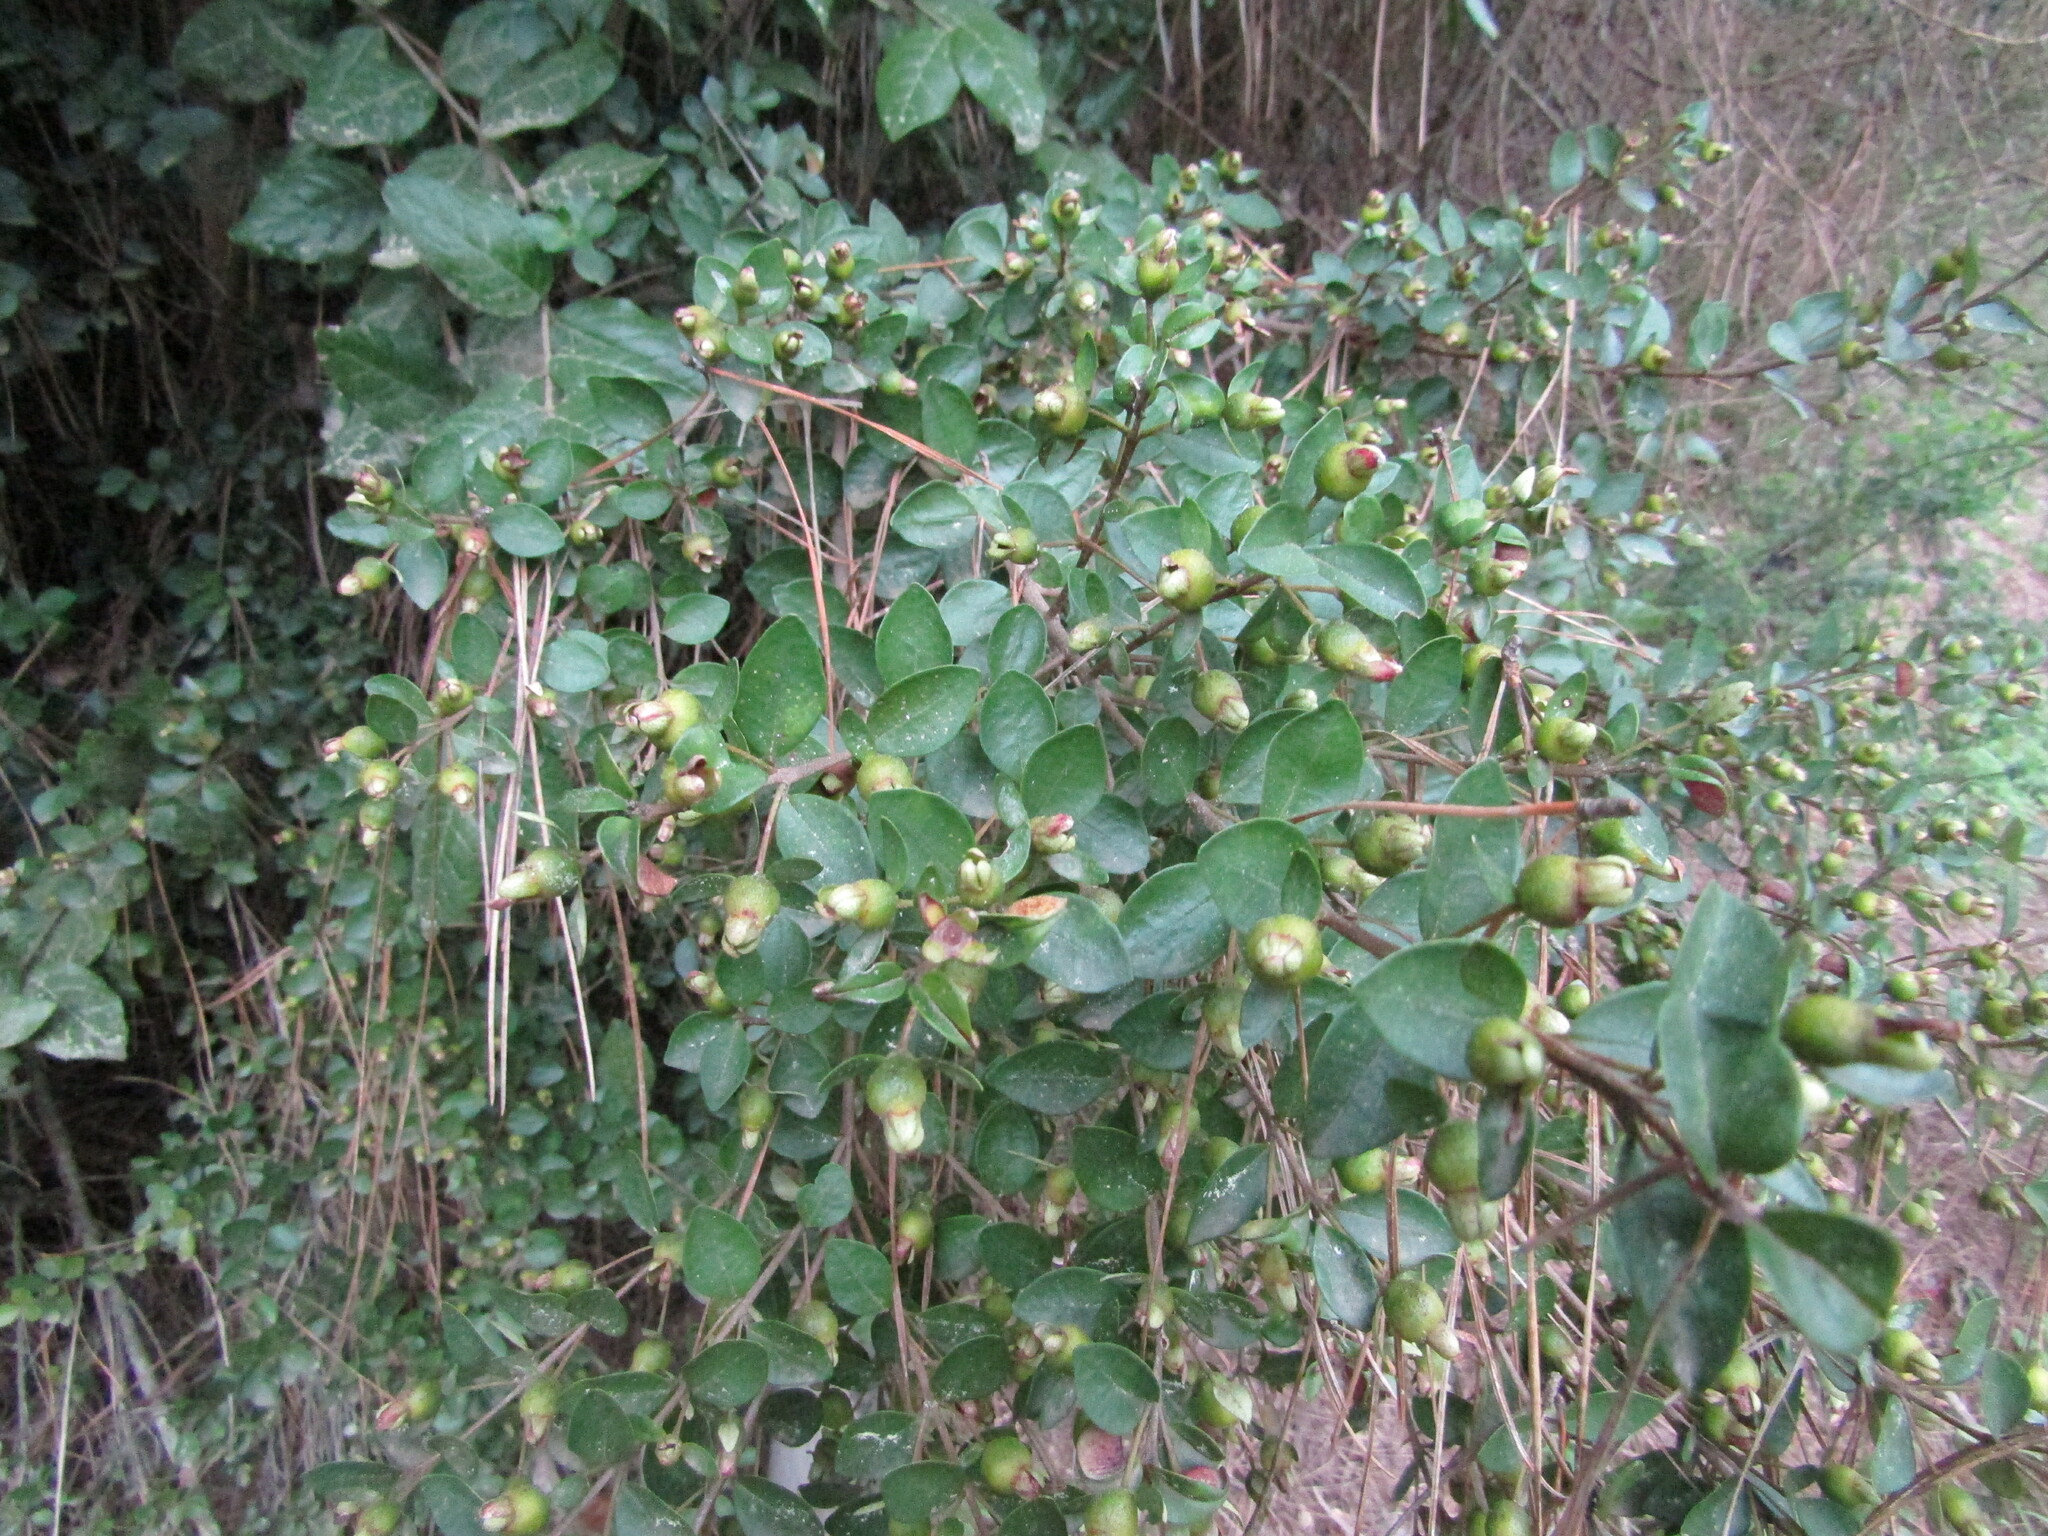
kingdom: Plantae
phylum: Tracheophyta
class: Magnoliopsida
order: Myrtales
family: Myrtaceae
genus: Myrceugenia
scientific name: Myrceugenia obtusa
